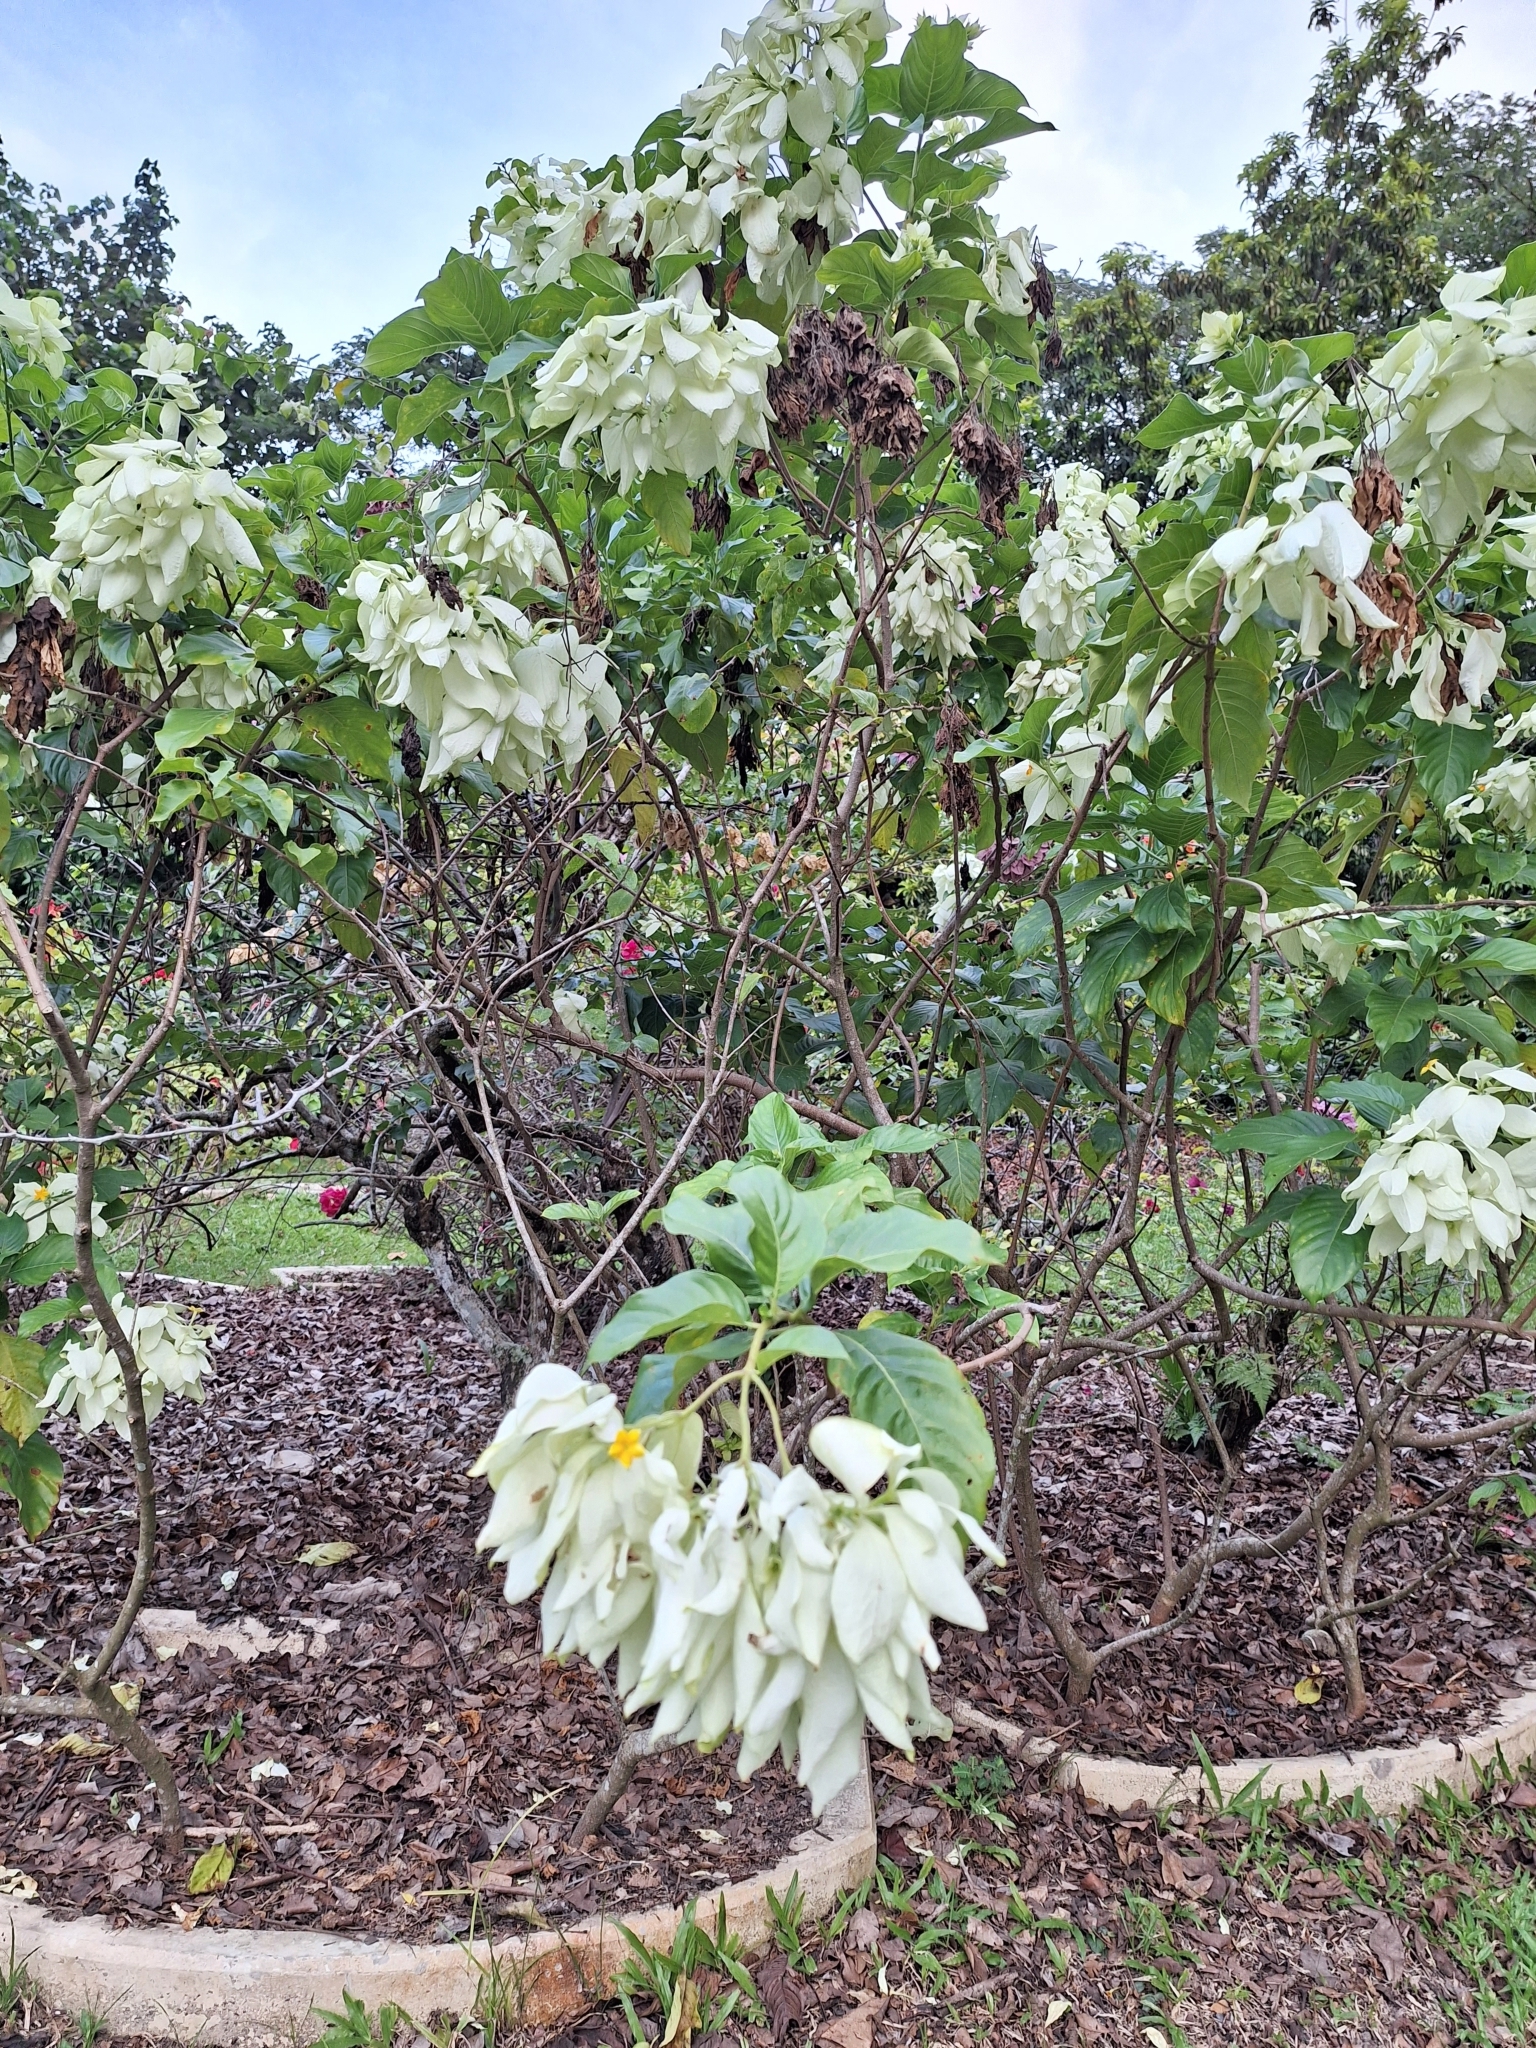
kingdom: Plantae
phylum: Tracheophyta
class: Magnoliopsida
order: Gentianales
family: Rubiaceae
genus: Mussaenda
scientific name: Mussaenda philippica
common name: Philippine mussaenda
